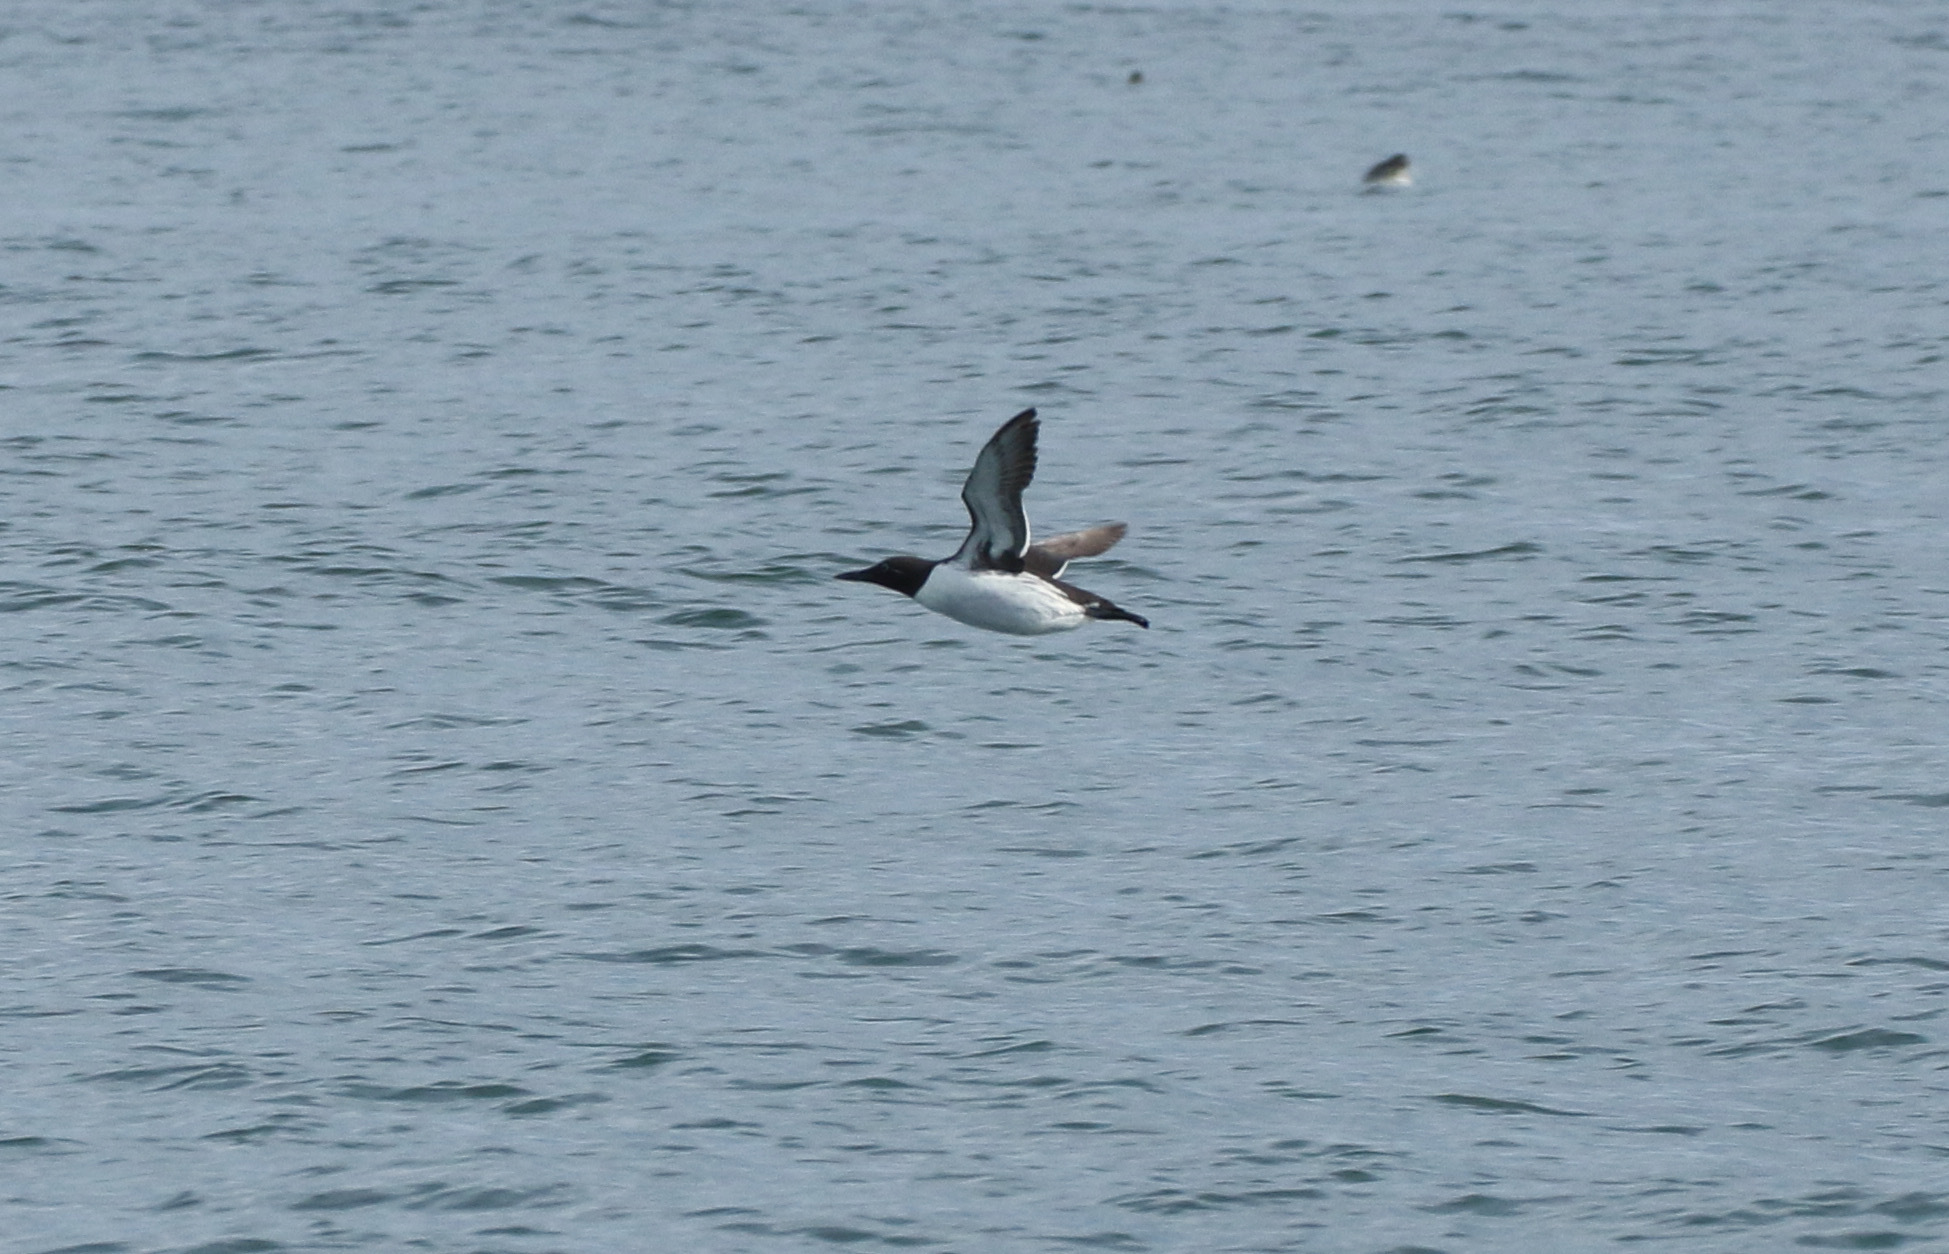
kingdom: Animalia
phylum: Chordata
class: Aves
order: Charadriiformes
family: Alcidae
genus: Uria
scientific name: Uria aalge
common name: Common murre
